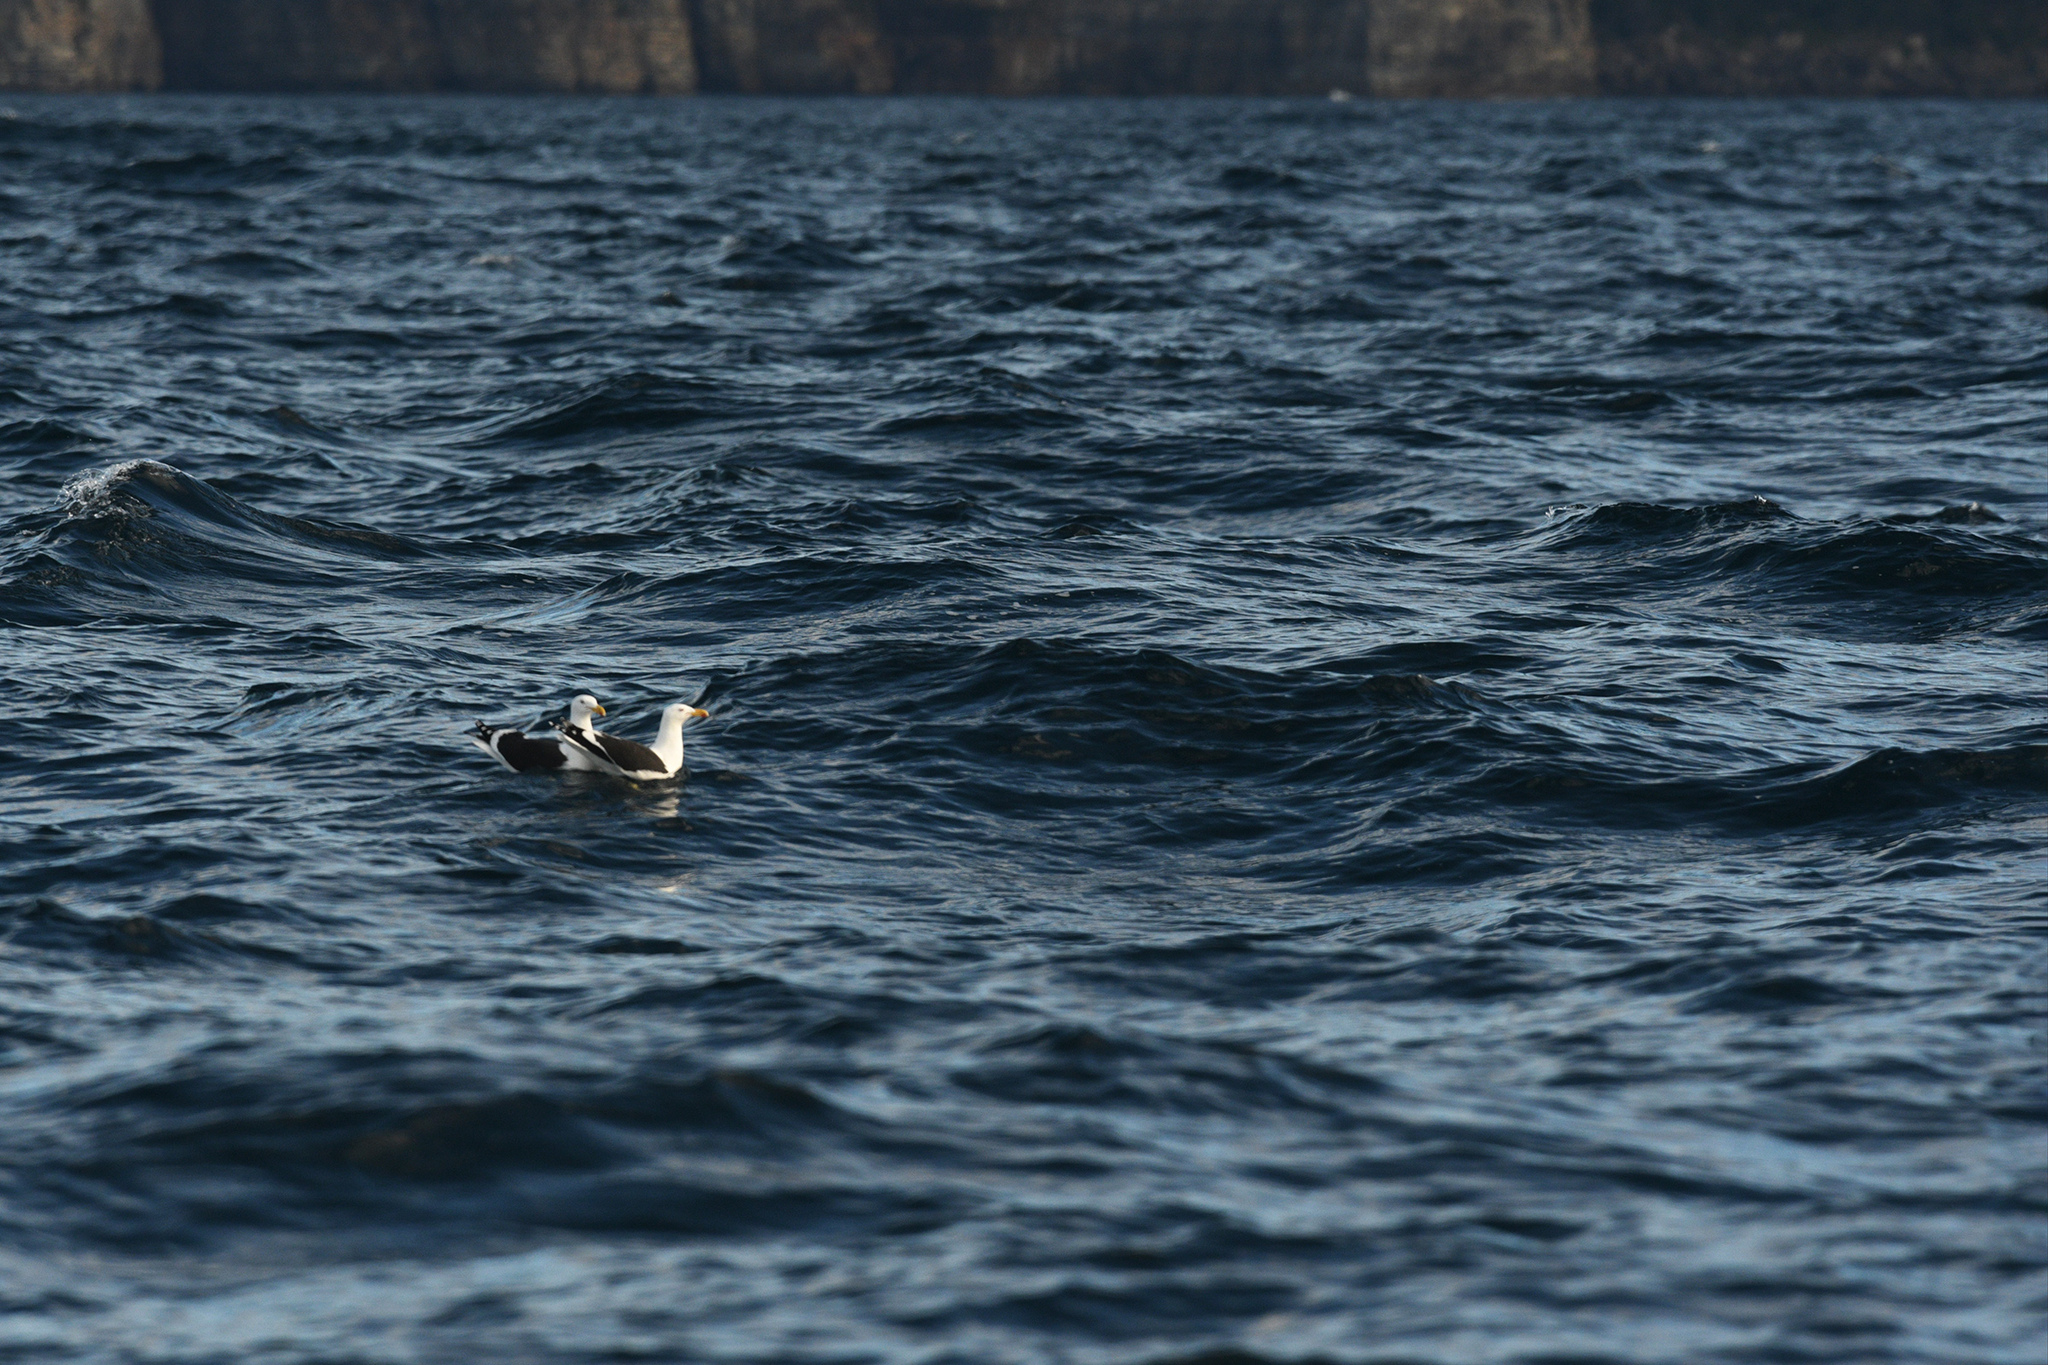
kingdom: Animalia
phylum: Chordata
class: Aves
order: Charadriiformes
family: Laridae
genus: Larus
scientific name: Larus dominicanus
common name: Kelp gull
